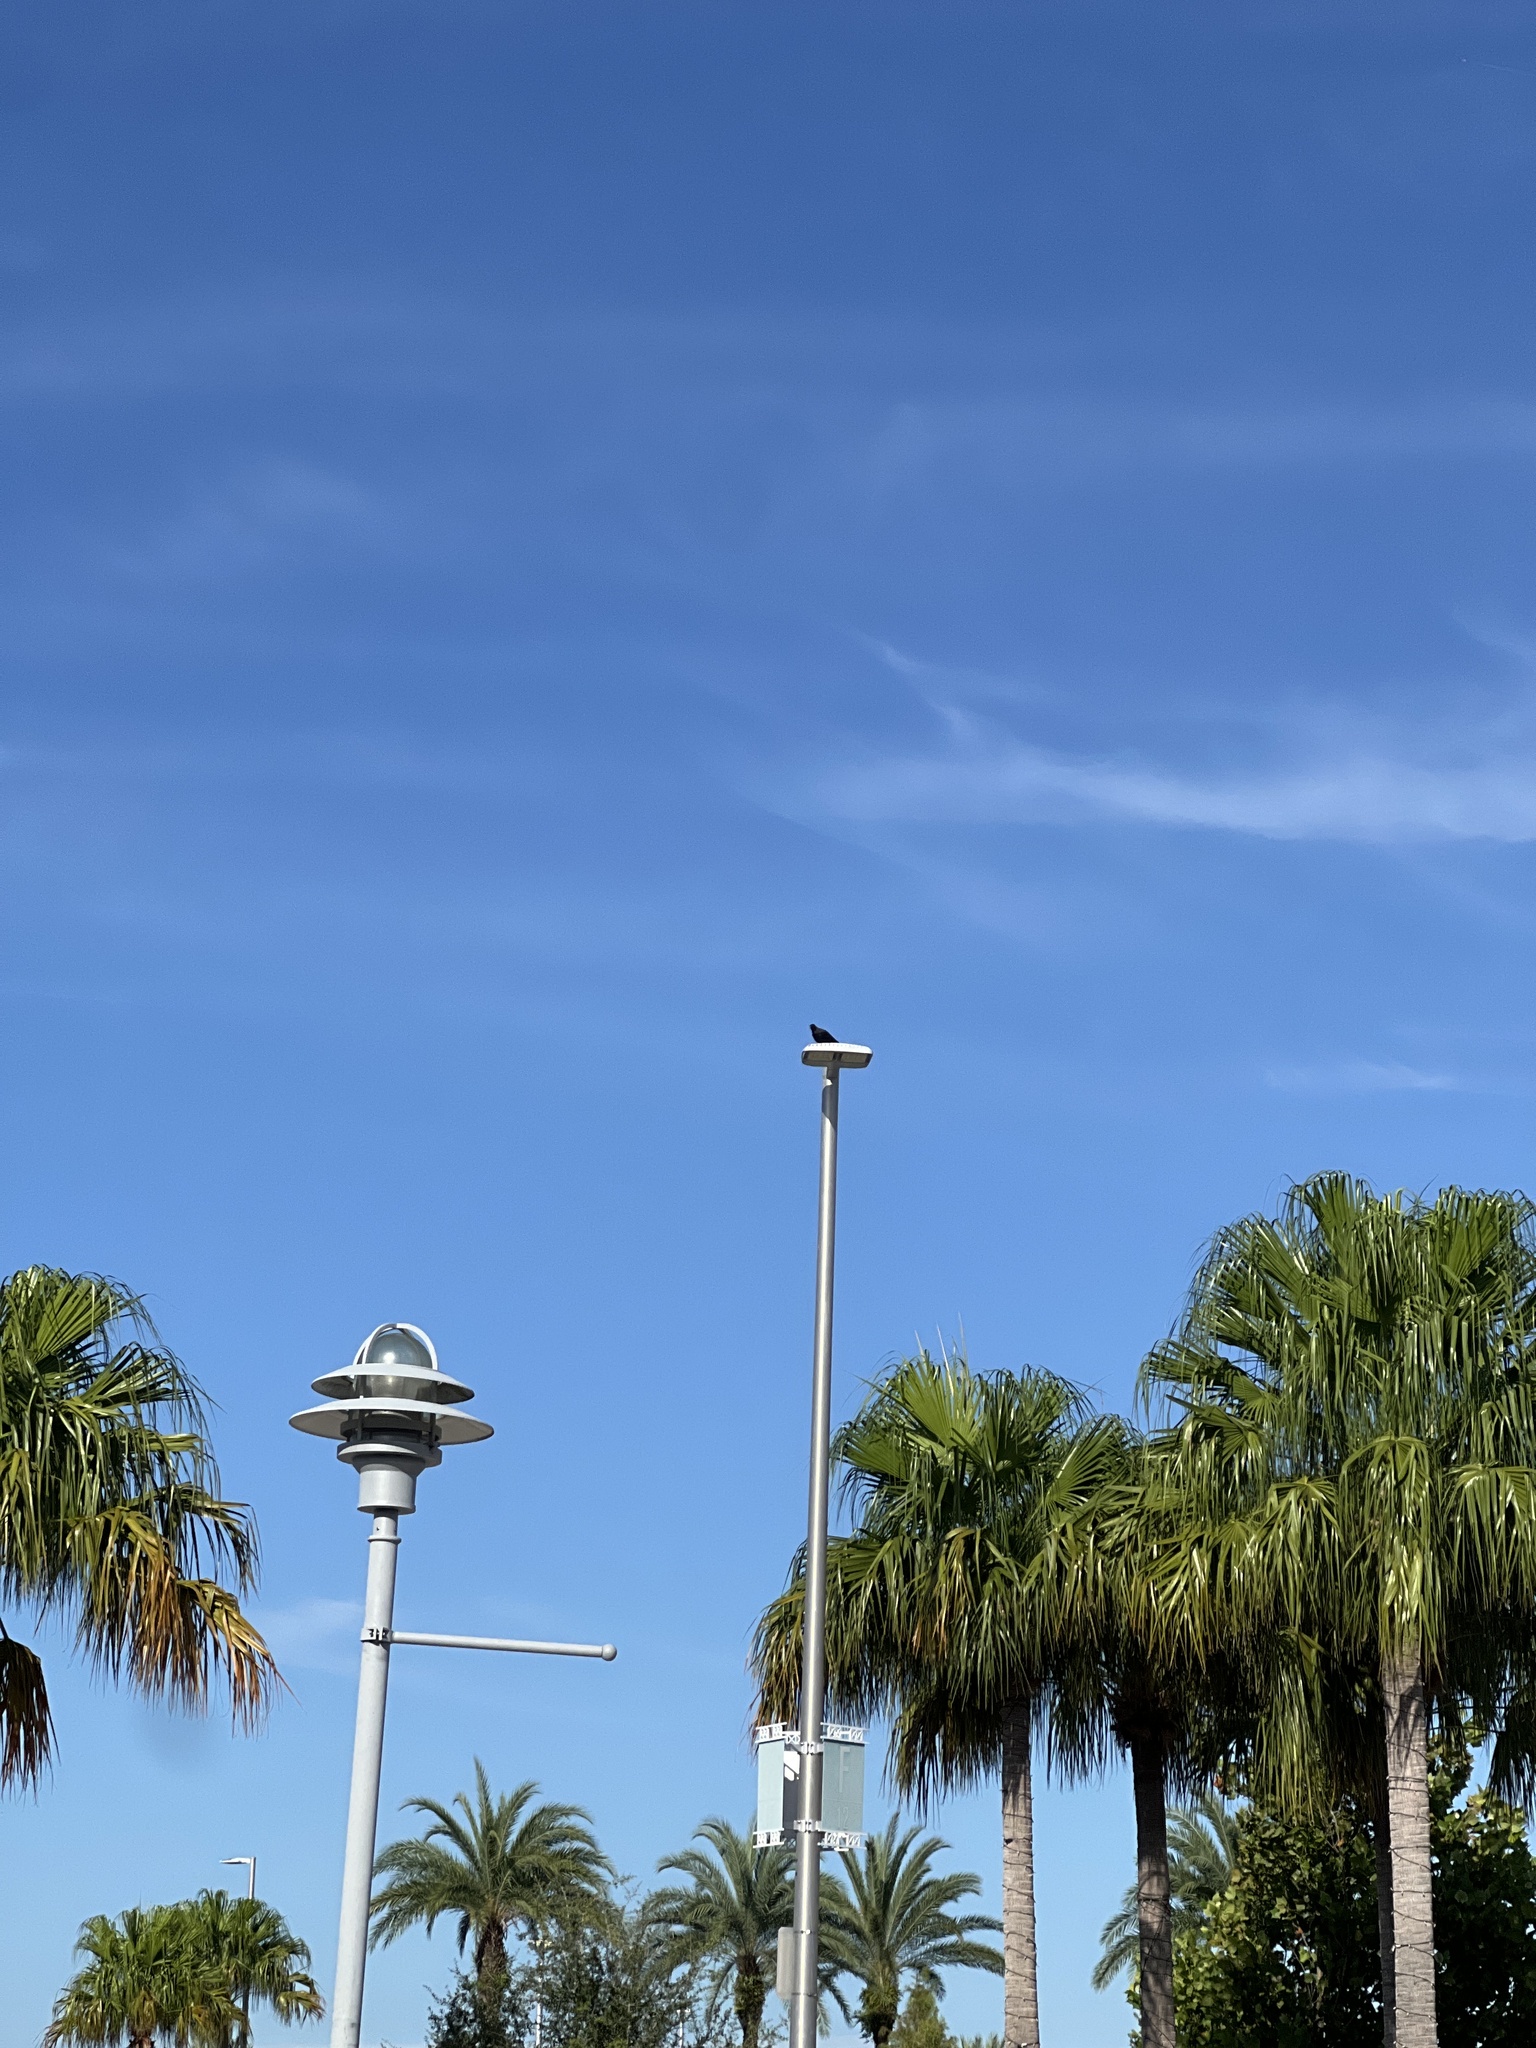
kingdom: Animalia
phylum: Chordata
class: Aves
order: Passeriformes
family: Corvidae
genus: Corvus
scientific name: Corvus ossifragus
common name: Fish crow
